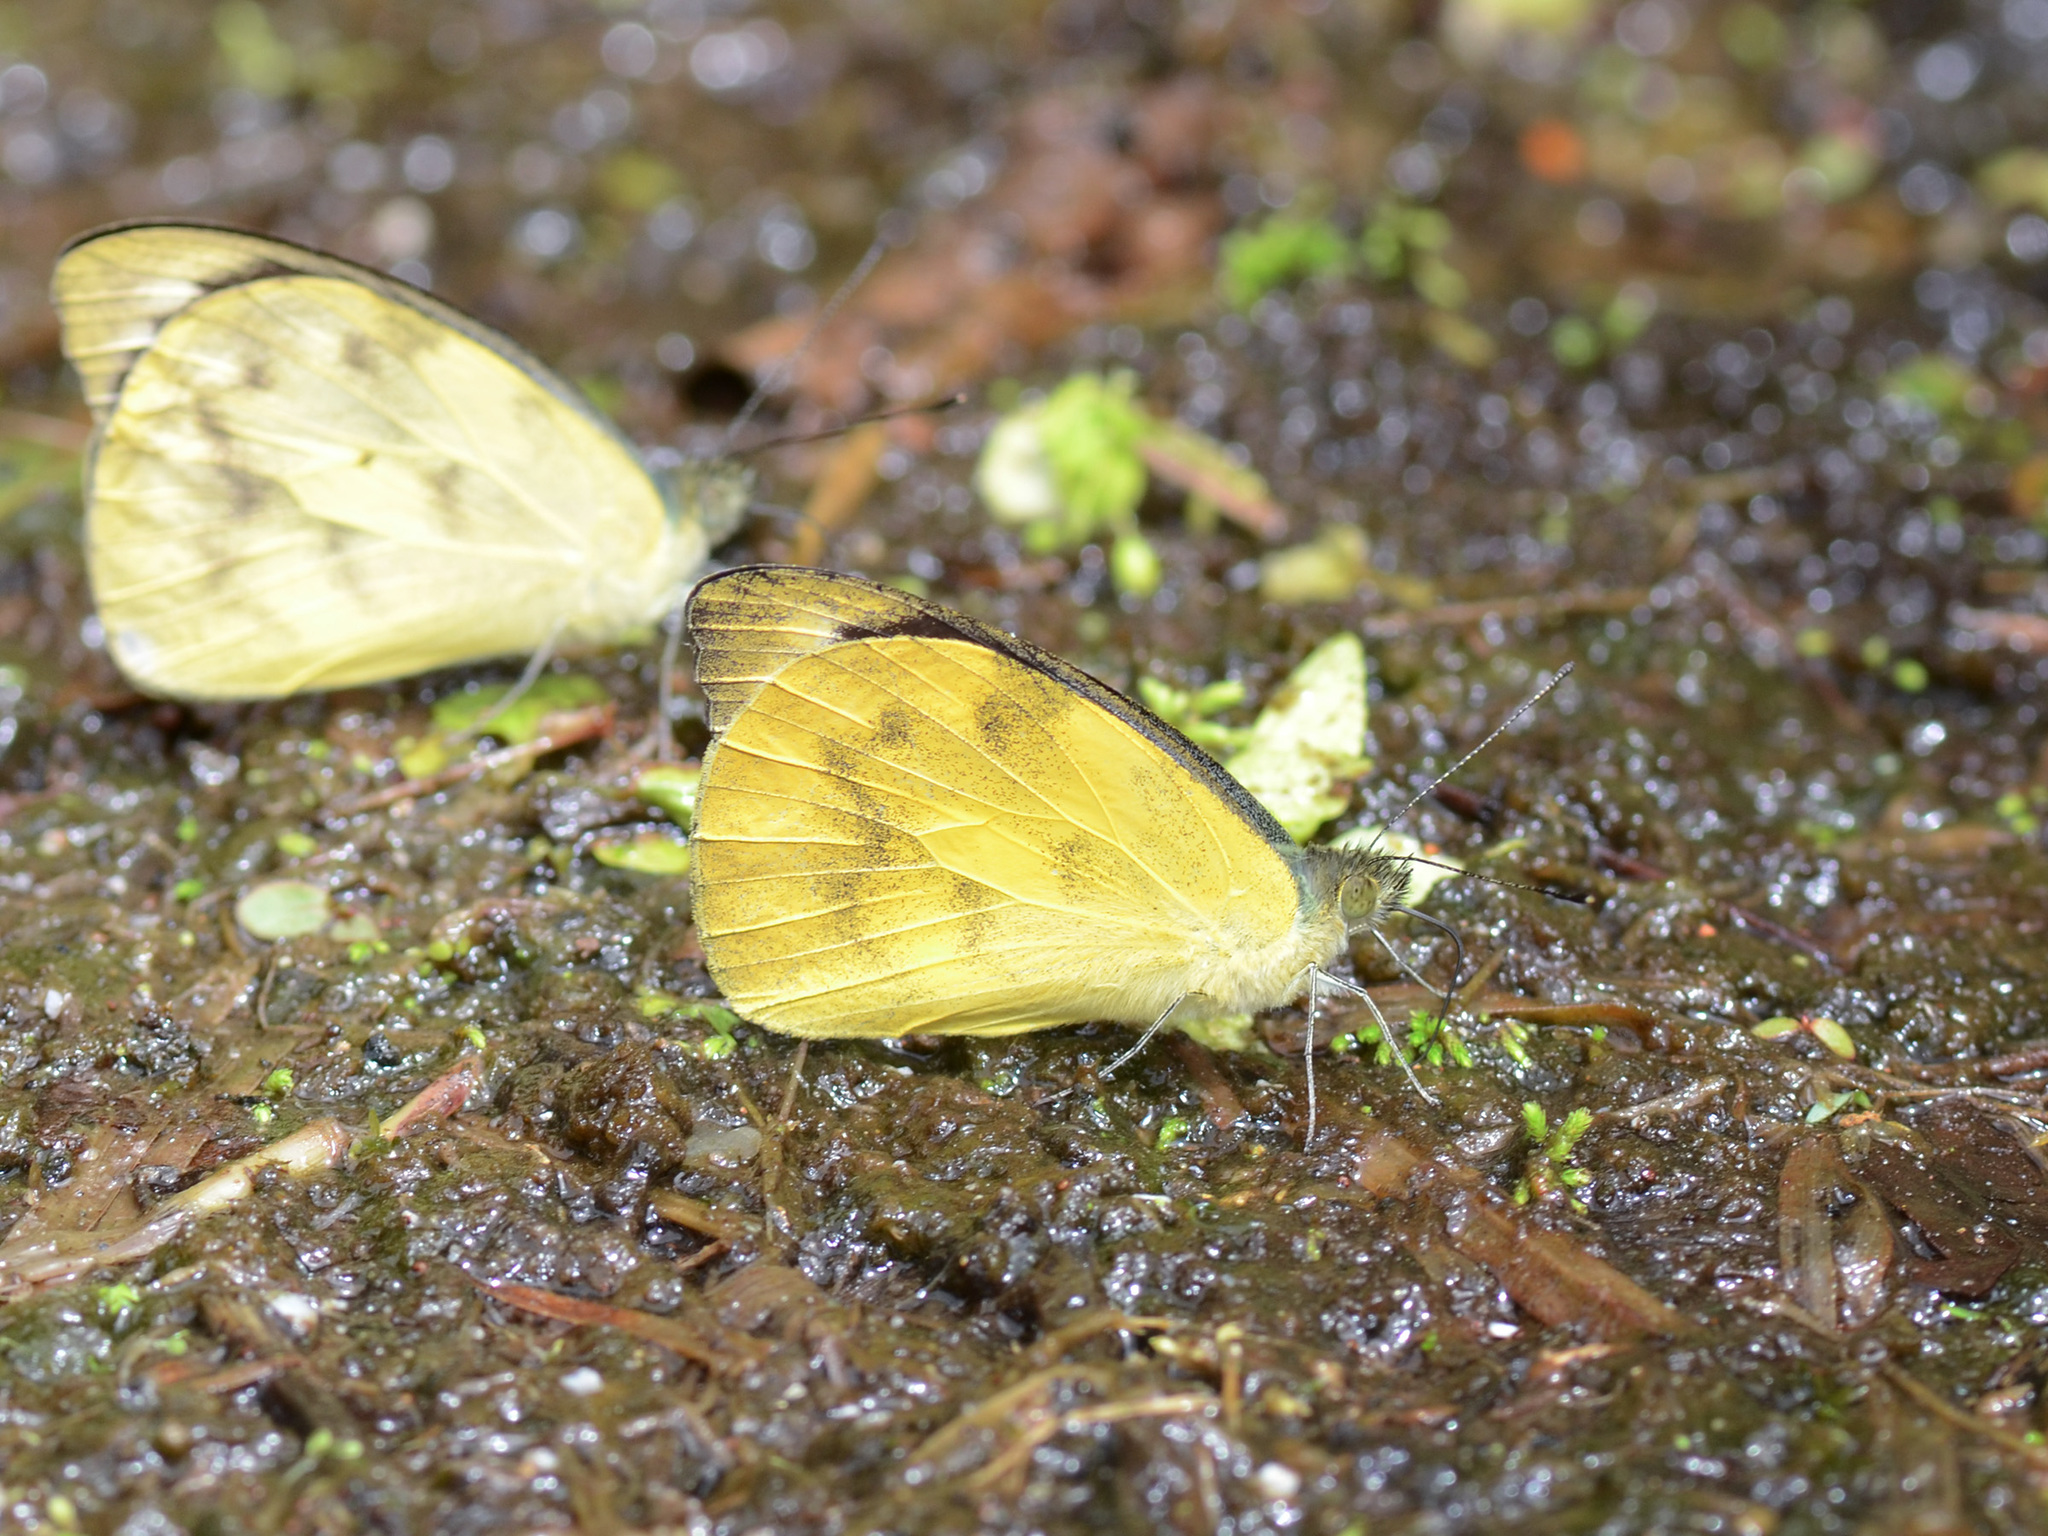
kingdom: Animalia
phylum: Arthropoda
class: Insecta
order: Lepidoptera
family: Pieridae
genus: Appias
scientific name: Appias pandione
